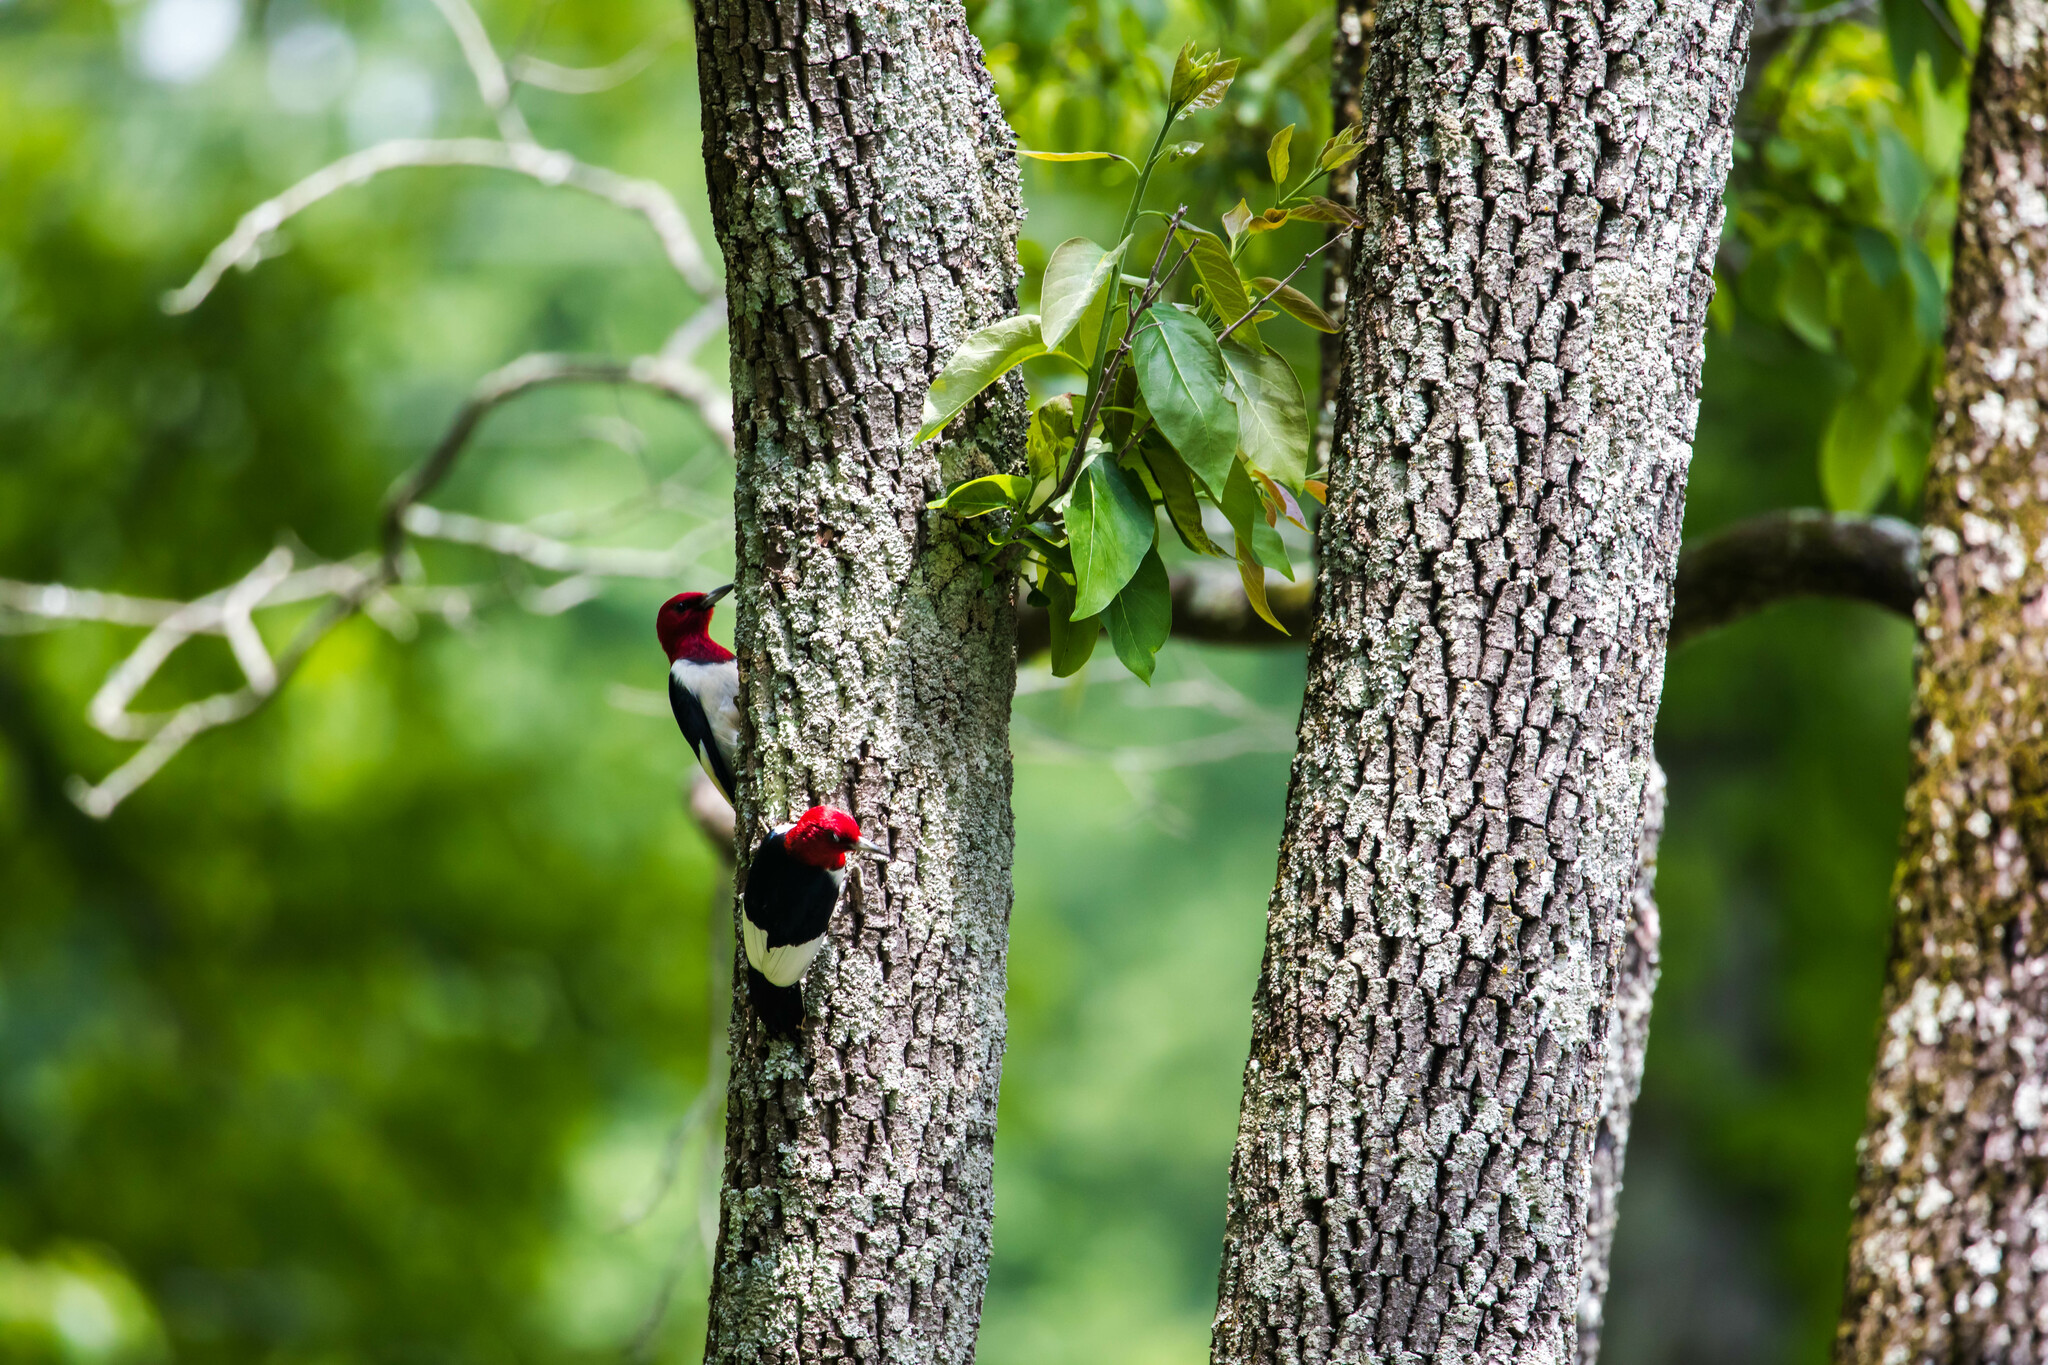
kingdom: Animalia
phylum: Chordata
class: Aves
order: Piciformes
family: Picidae
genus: Melanerpes
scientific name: Melanerpes erythrocephalus
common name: Red-headed woodpecker
